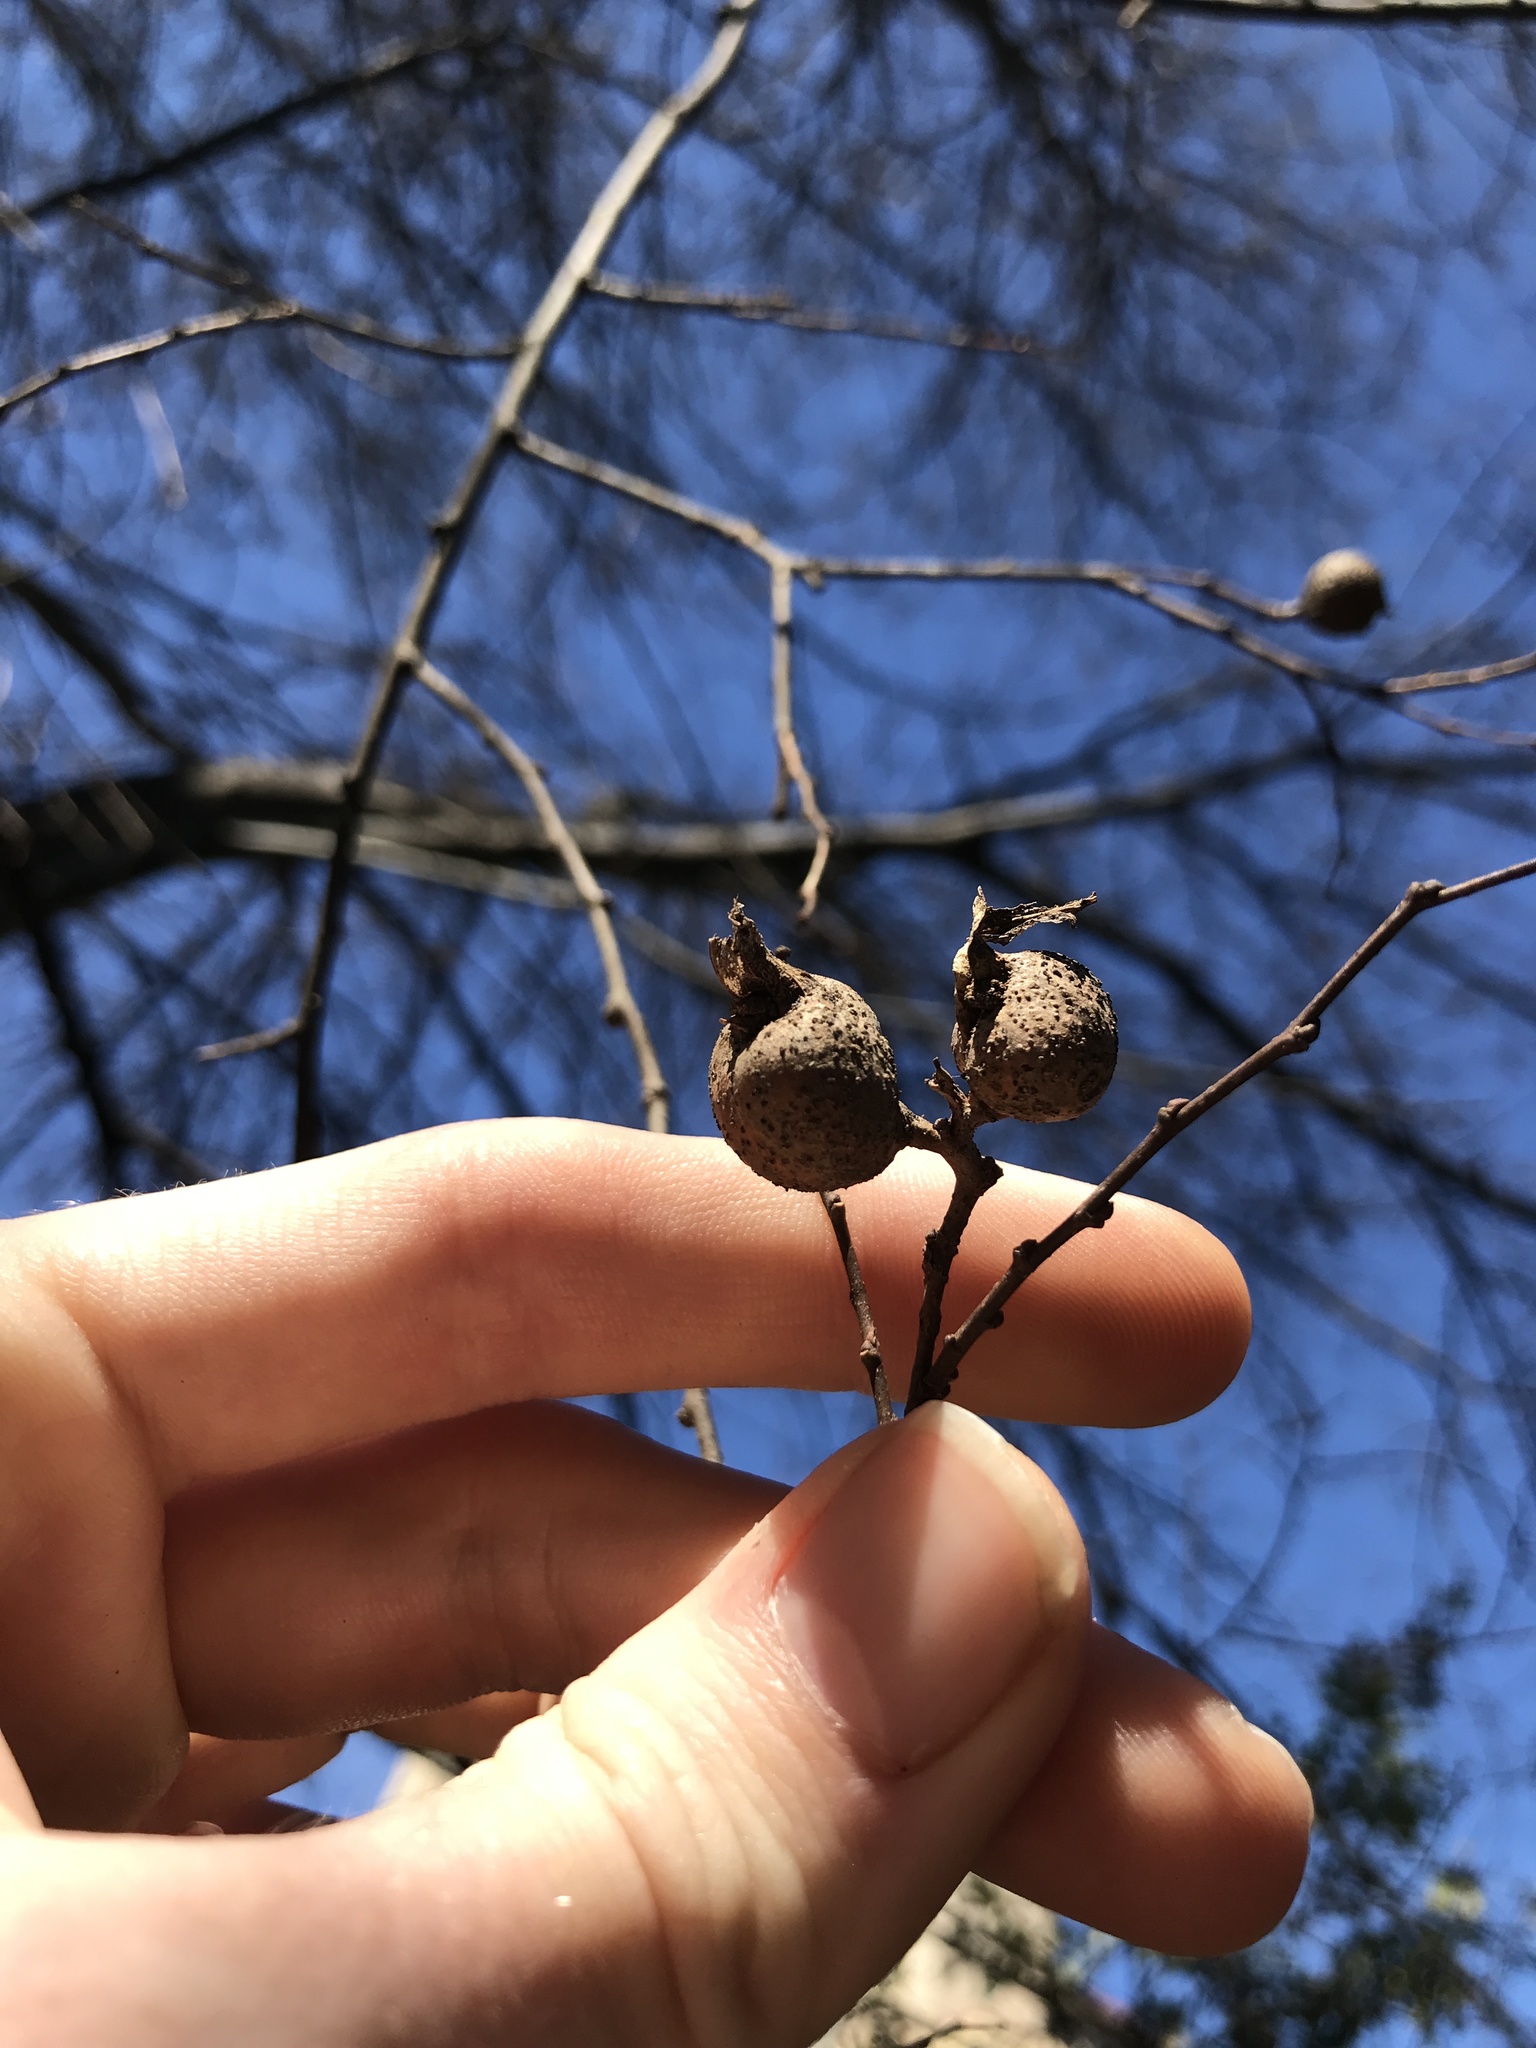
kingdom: Animalia
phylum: Arthropoda
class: Insecta
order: Hemiptera
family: Aphalaridae
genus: Pachypsylla
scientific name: Pachypsylla venusta
